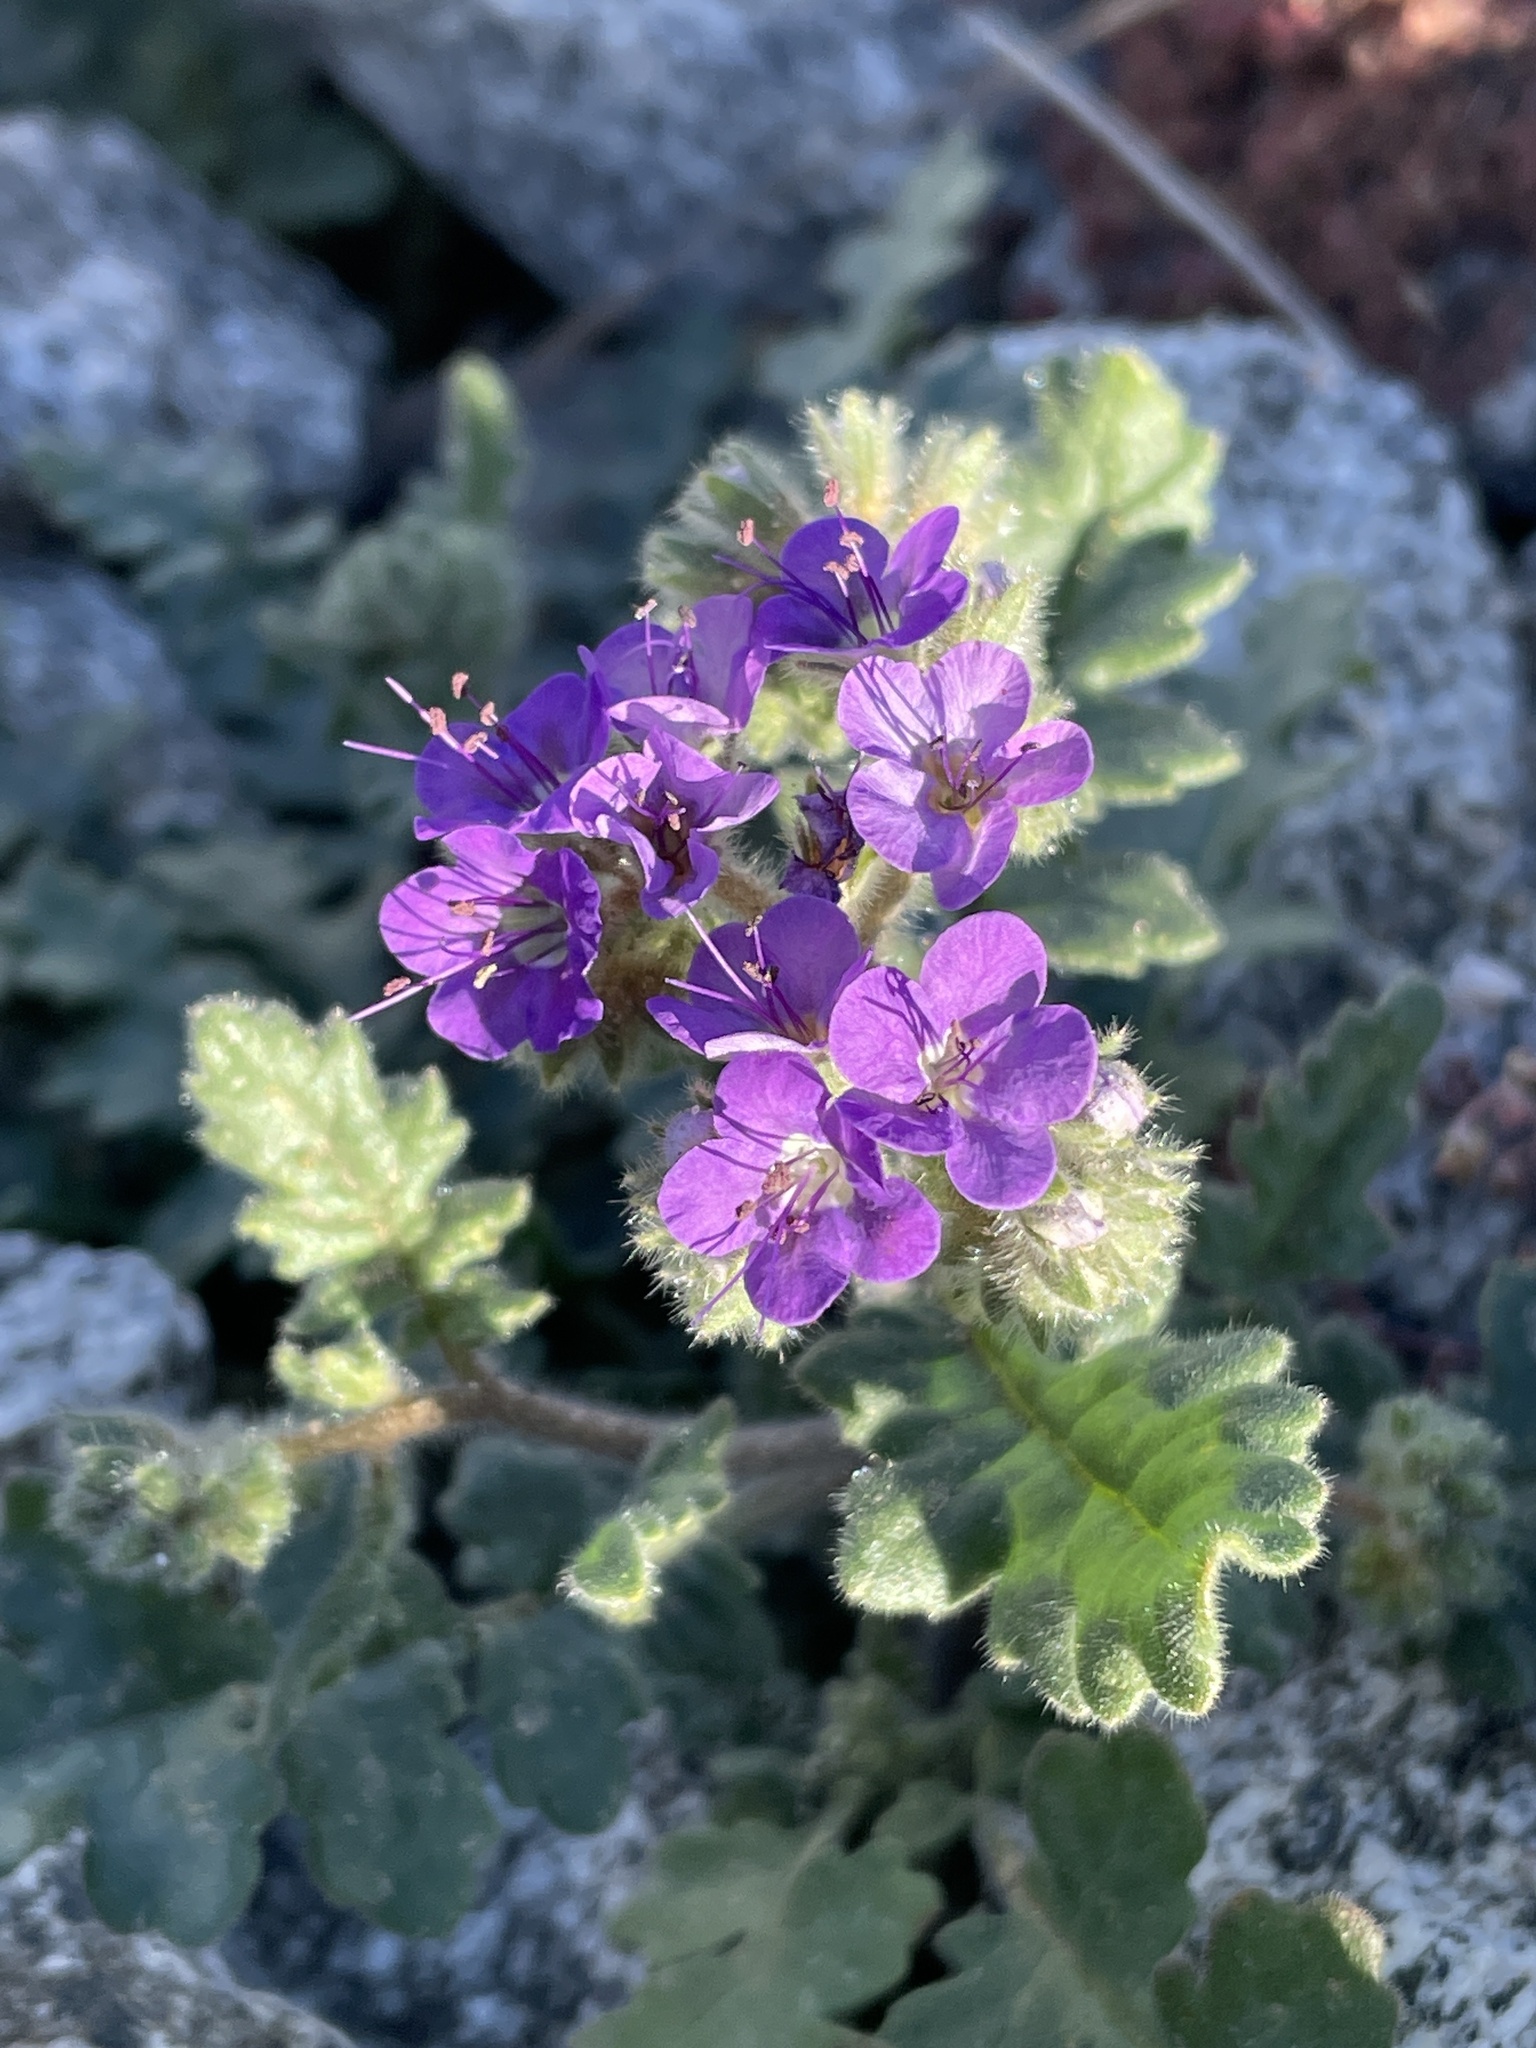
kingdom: Plantae
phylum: Tracheophyta
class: Magnoliopsida
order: Boraginales
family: Hydrophyllaceae
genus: Phacelia
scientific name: Phacelia crenulata
